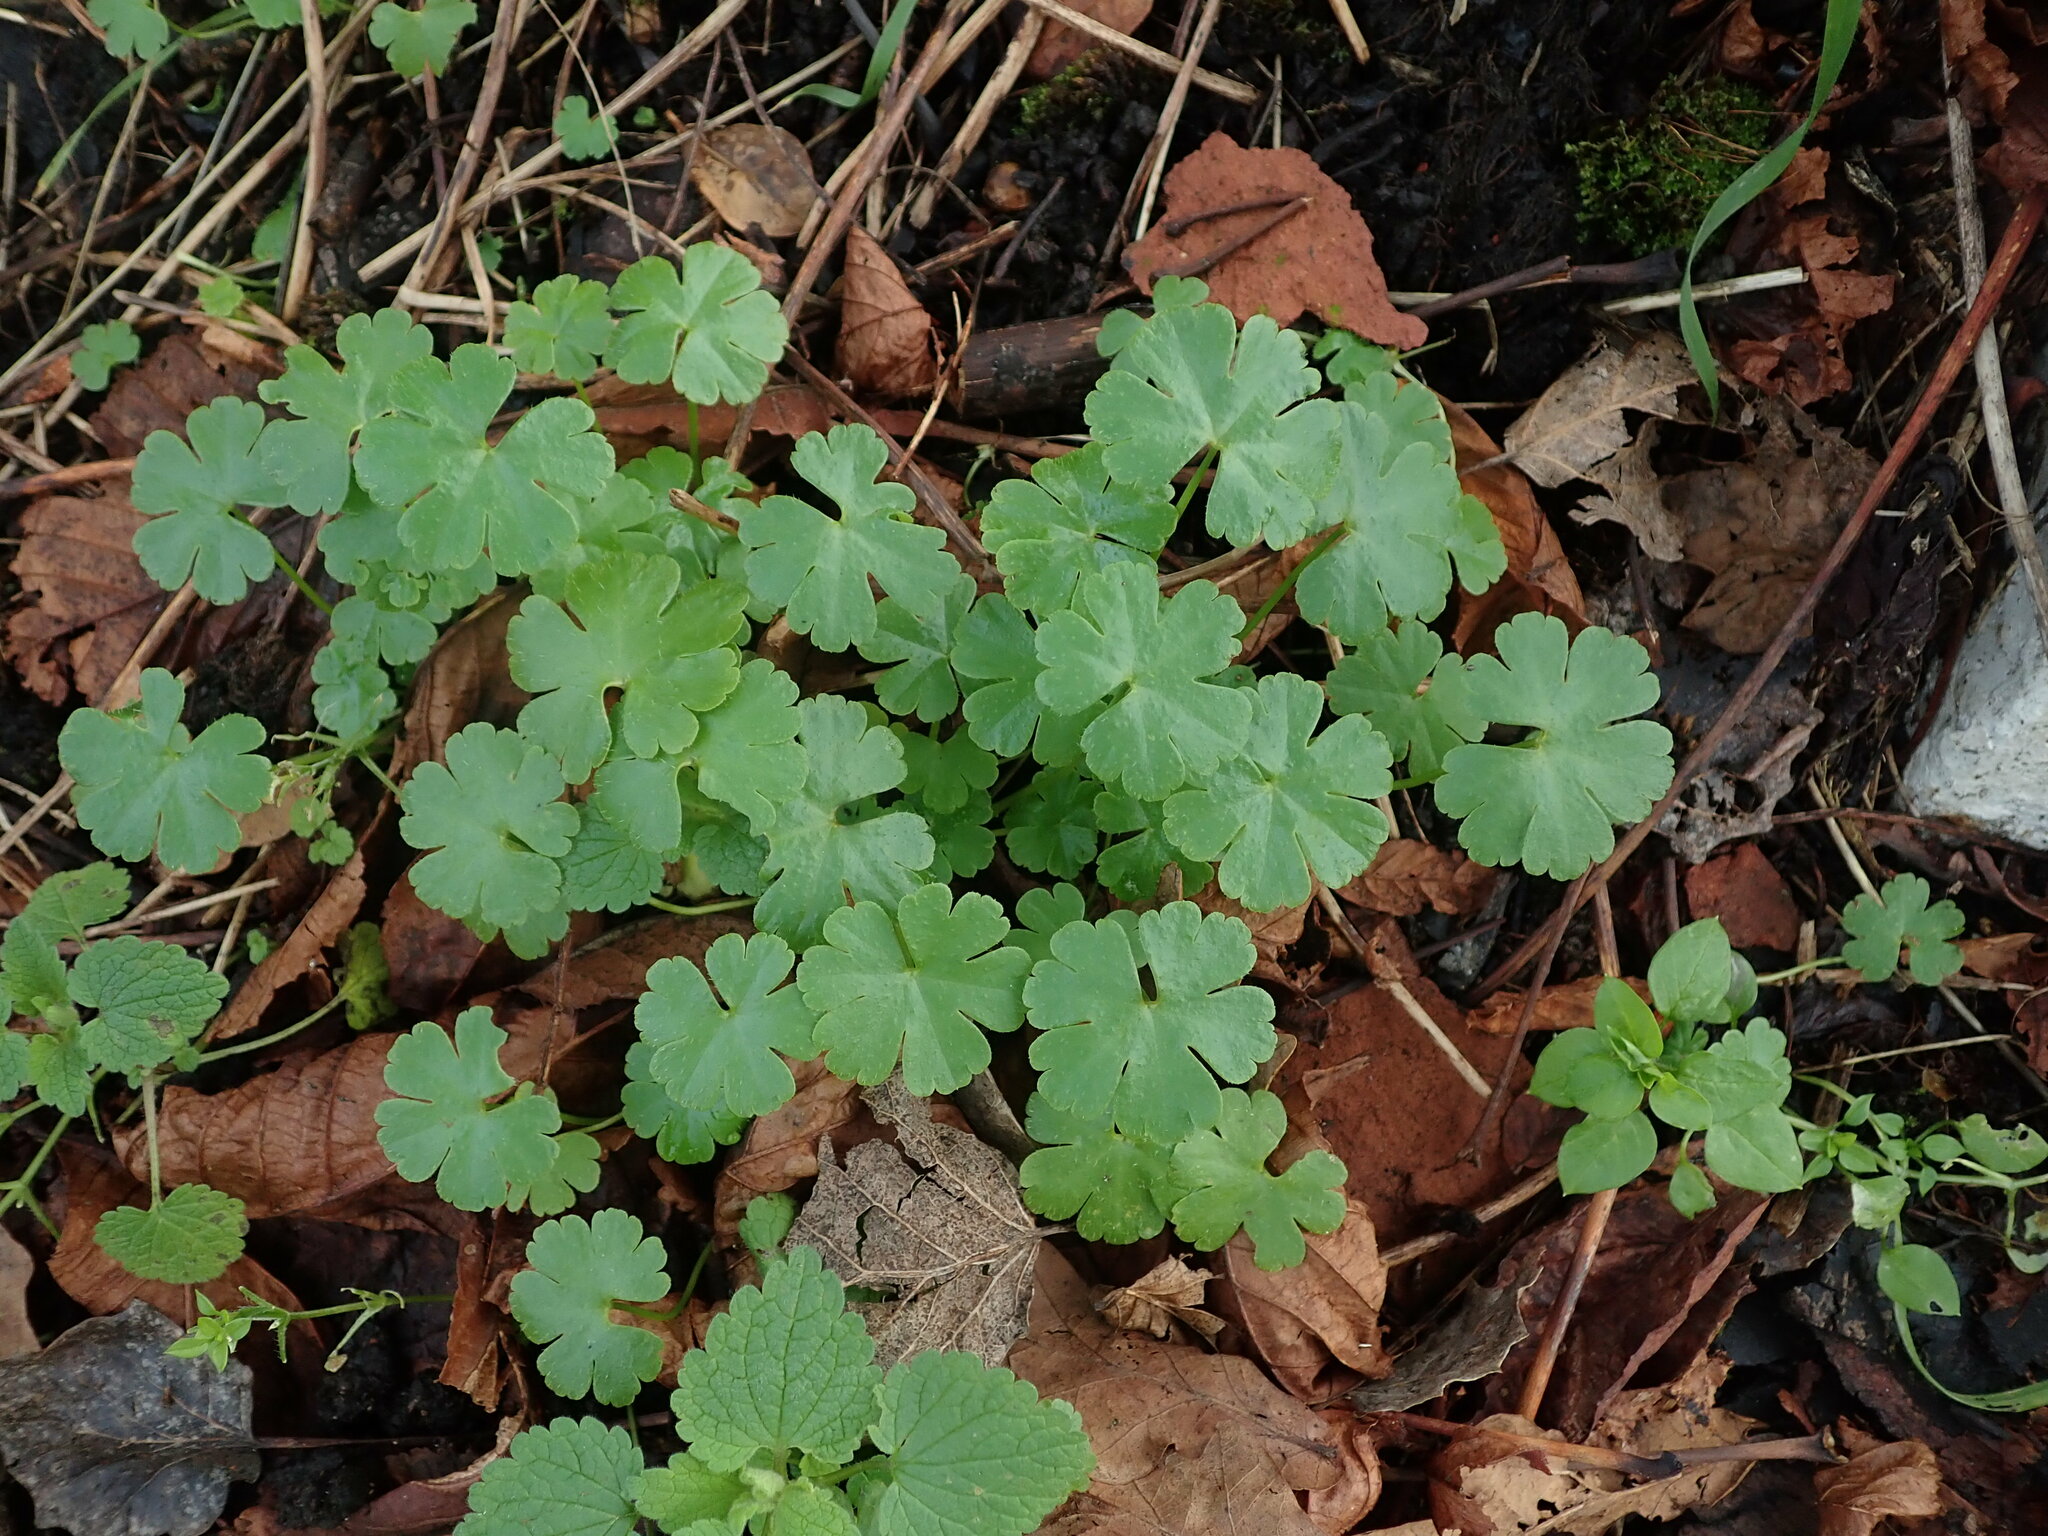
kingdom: Plantae
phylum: Tracheophyta
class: Magnoliopsida
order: Geraniales
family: Geraniaceae
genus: Geranium
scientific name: Geranium lucidum
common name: Shining crane's-bill
